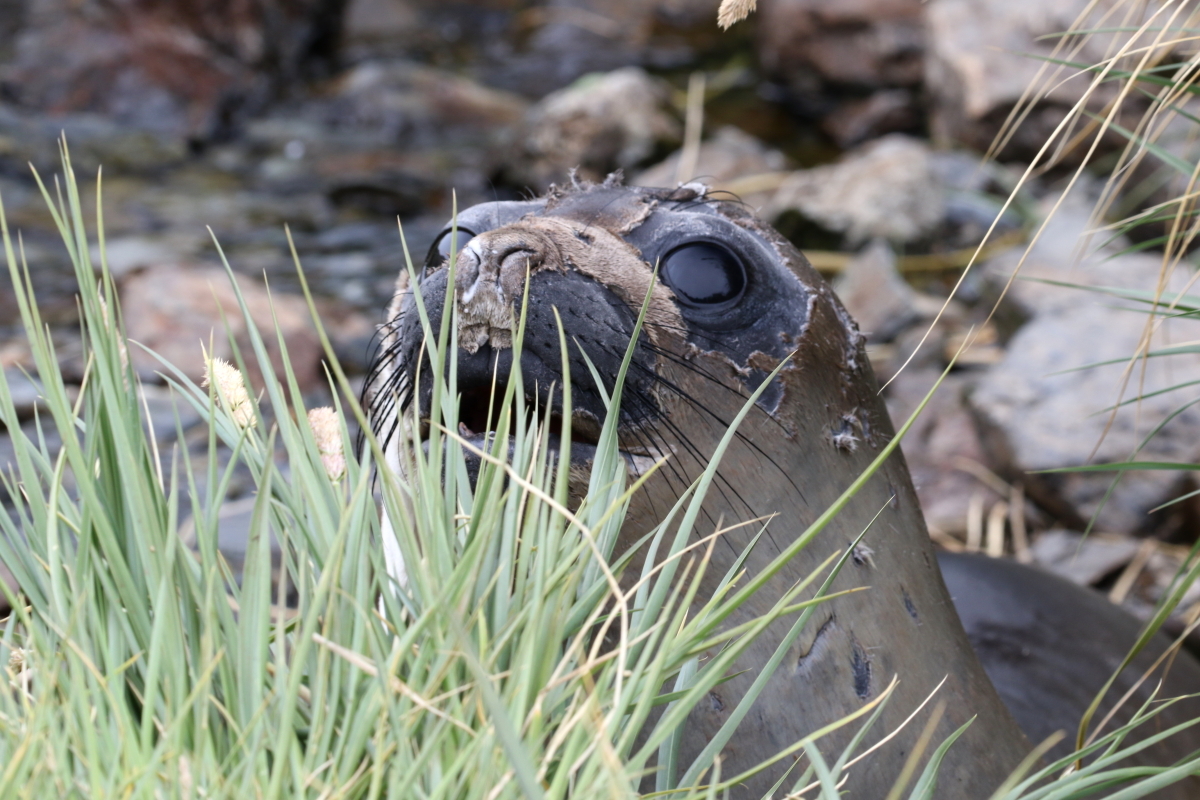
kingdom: Animalia
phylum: Chordata
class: Mammalia
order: Carnivora
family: Phocidae
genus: Mirounga
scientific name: Mirounga leonina
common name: Southern elephant seal
